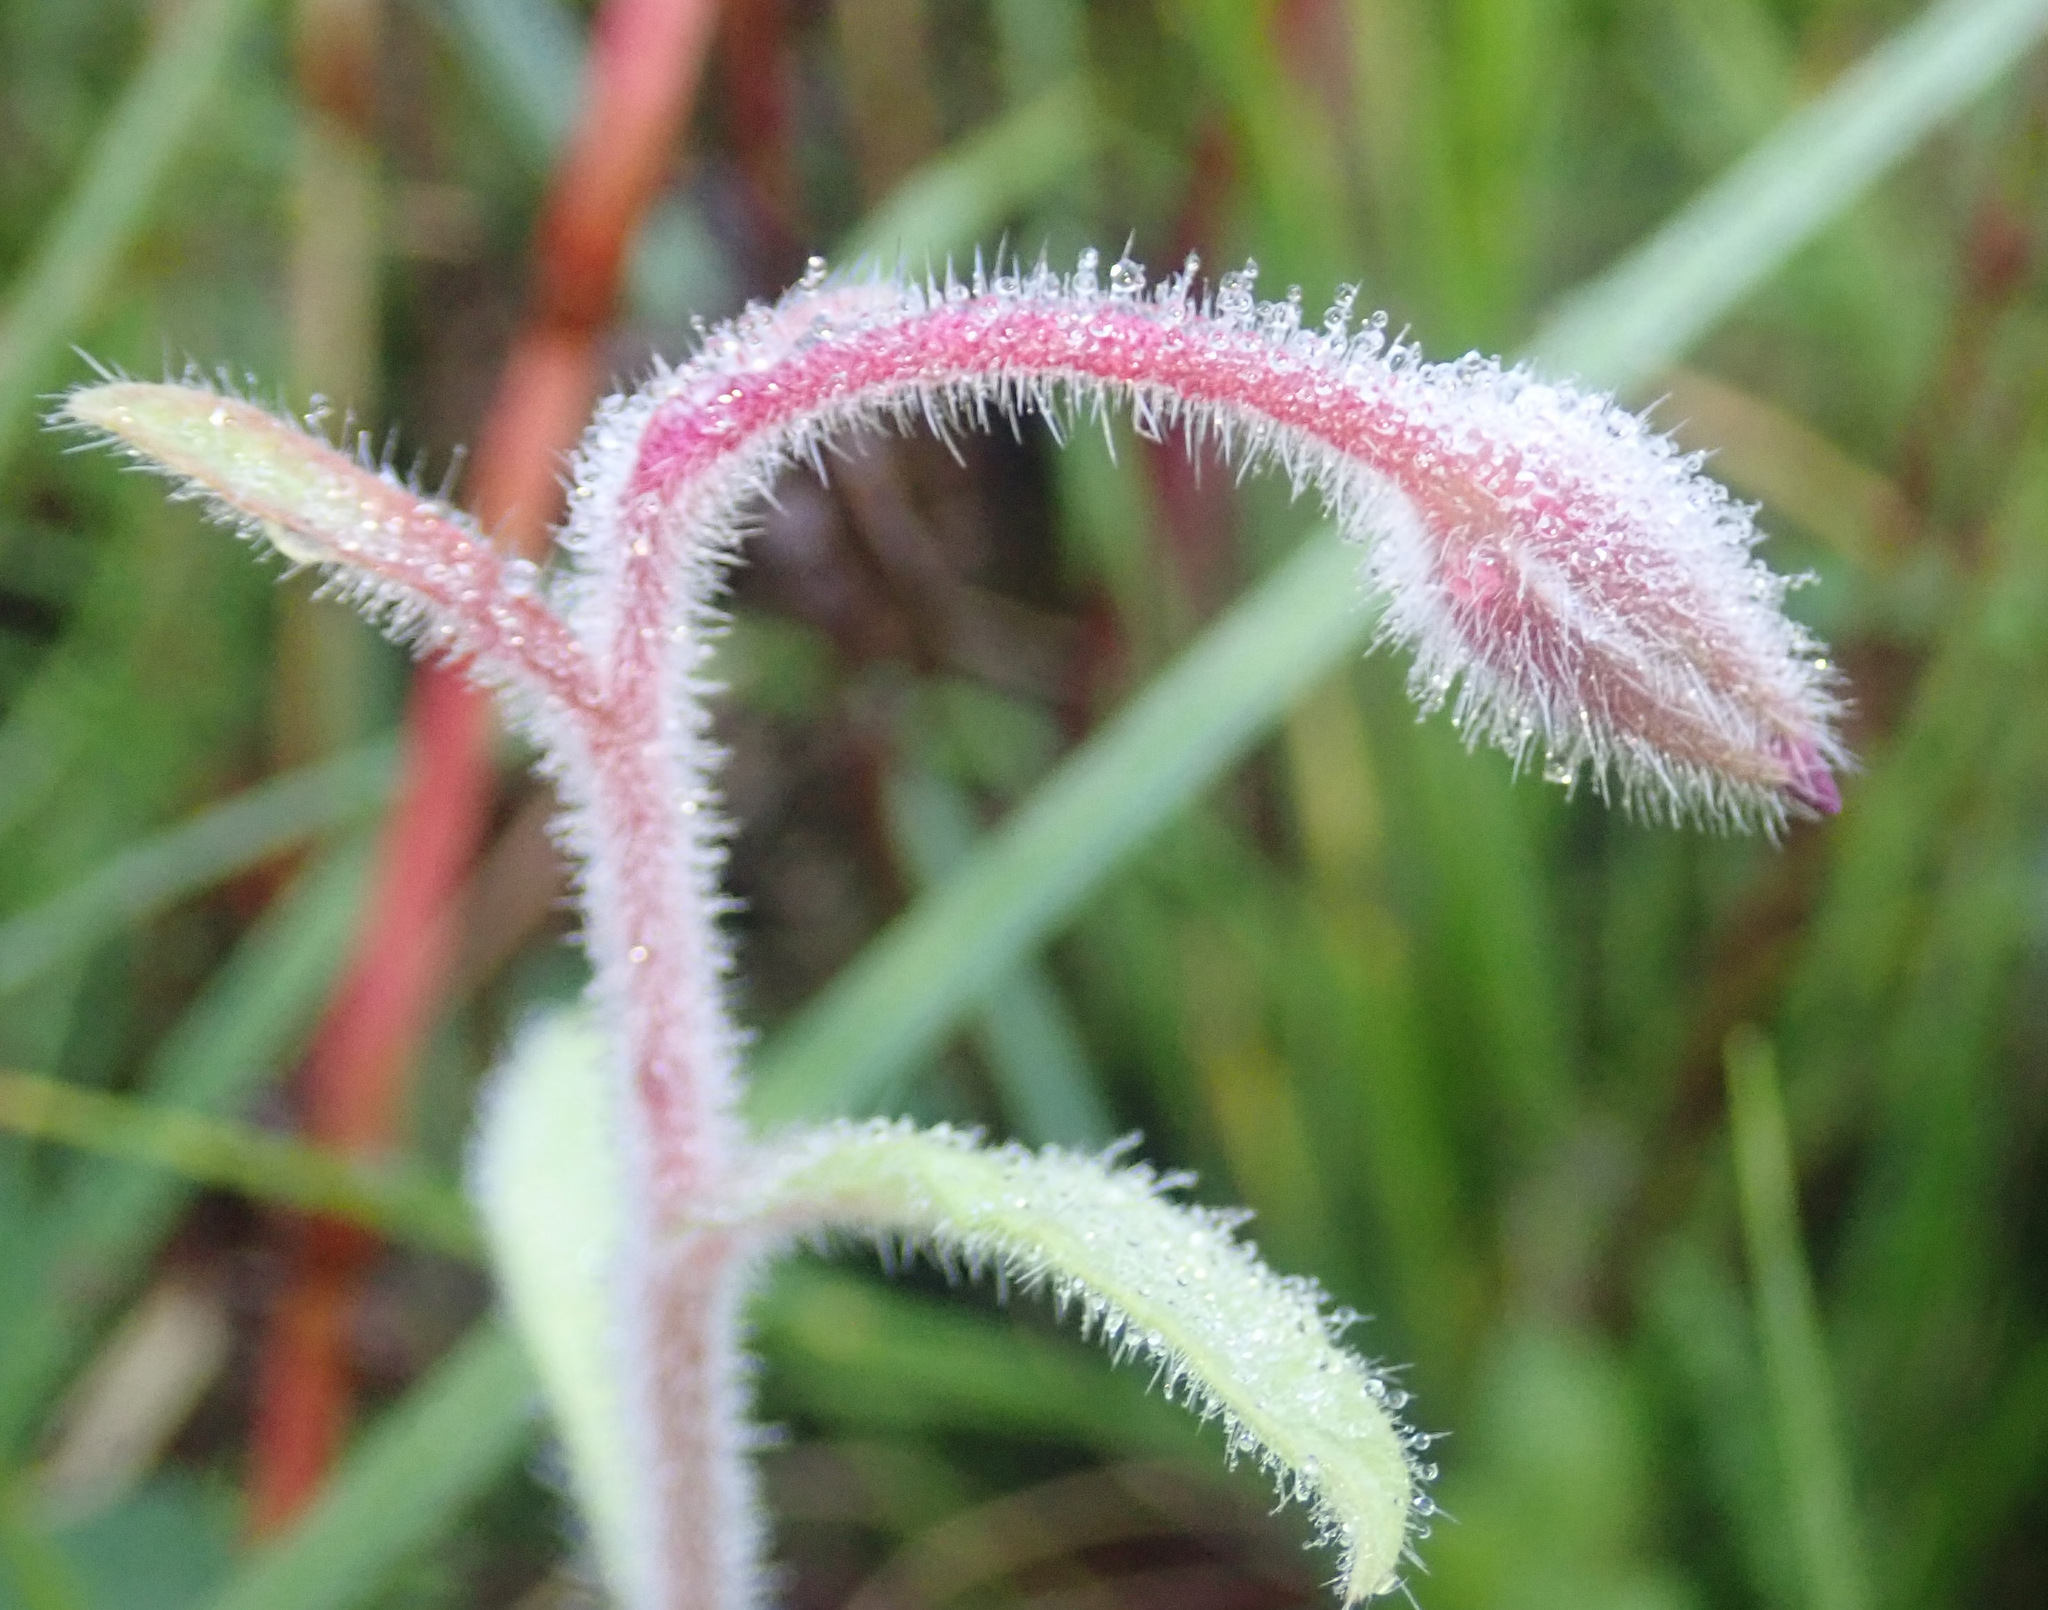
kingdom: Plantae
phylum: Tracheophyta
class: Magnoliopsida
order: Boraginales
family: Boraginaceae
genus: Borago
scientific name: Borago officinalis
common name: Borage
